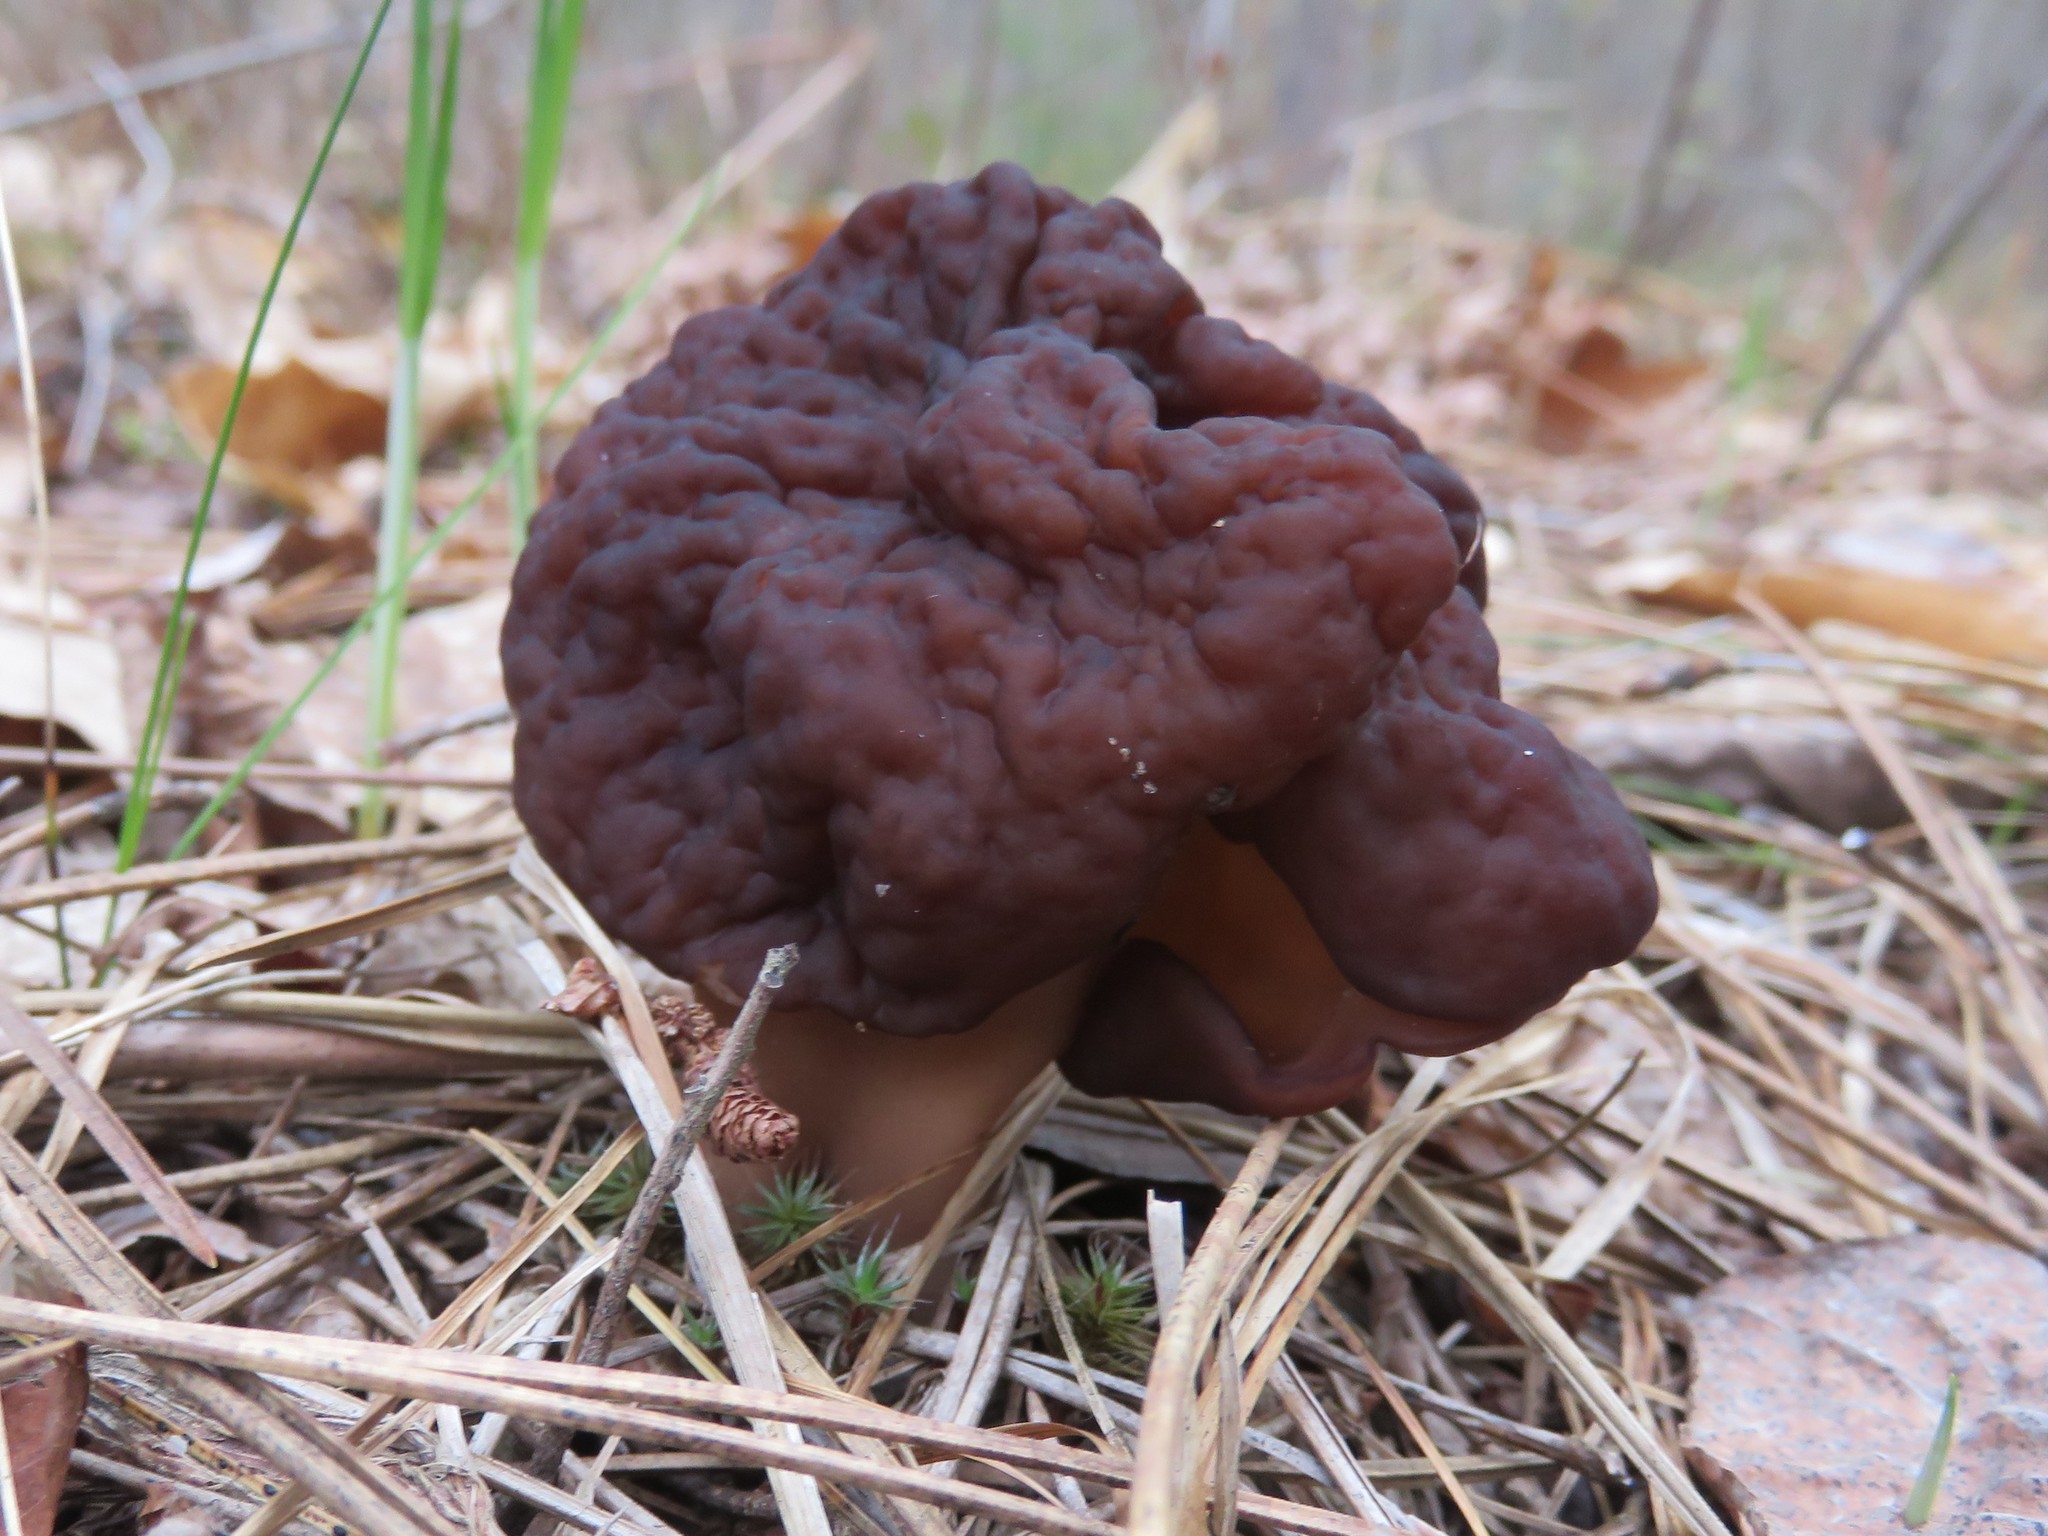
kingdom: Fungi
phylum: Ascomycota
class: Pezizomycetes
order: Pezizales
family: Discinaceae
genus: Gyromitra
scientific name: Gyromitra esculenta
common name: False morel
